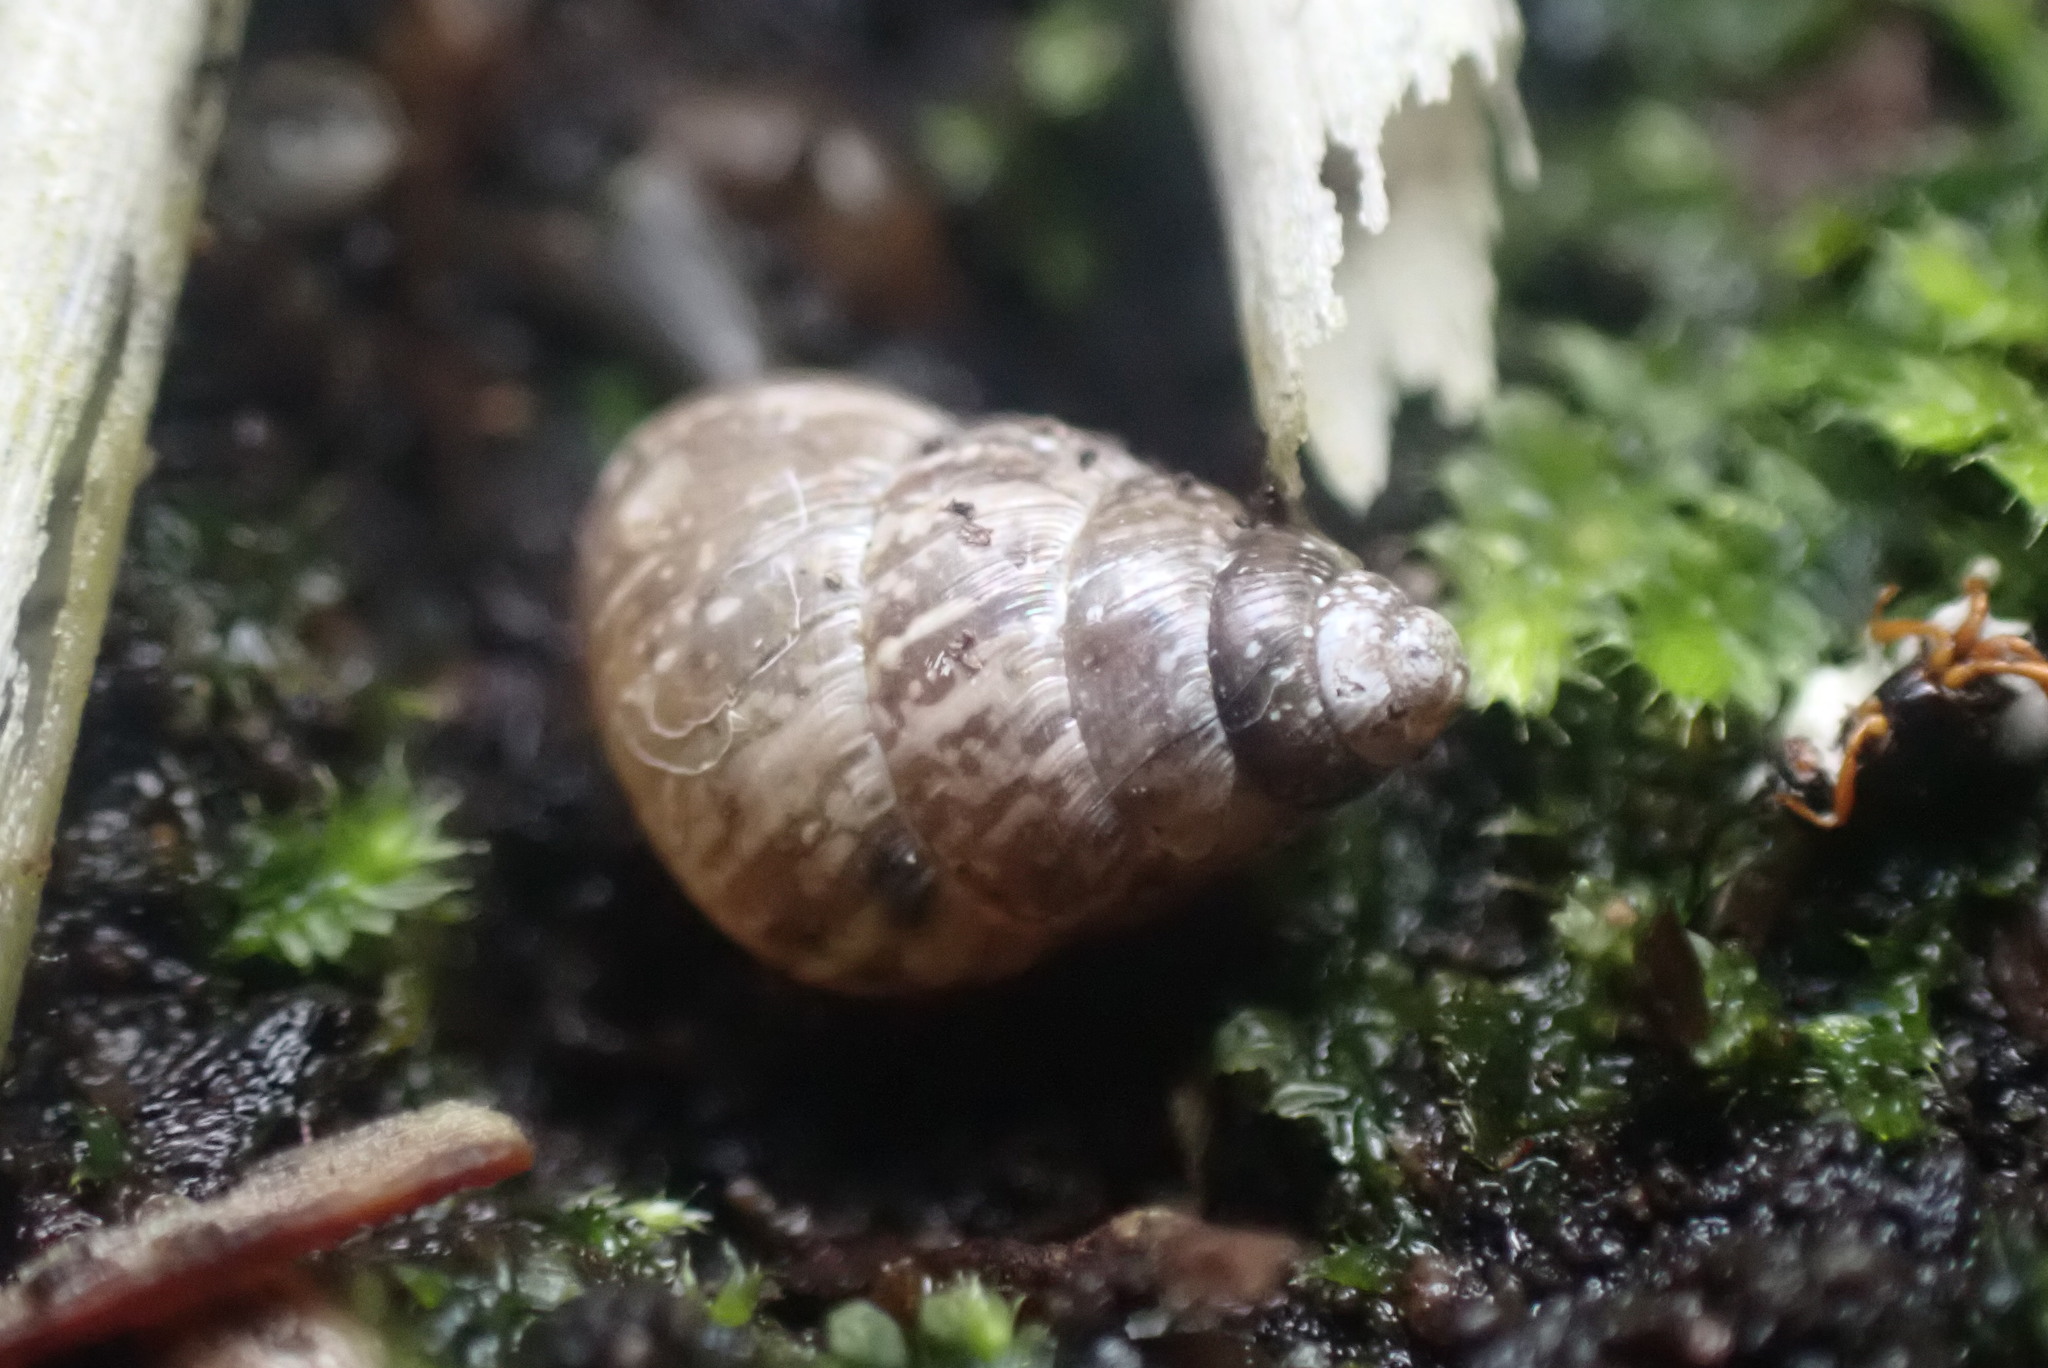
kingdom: Animalia
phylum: Mollusca
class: Gastropoda
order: Stylommatophora
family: Geomitridae
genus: Cochlicella
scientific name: Cochlicella barbara
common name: Potbellied helicellid
